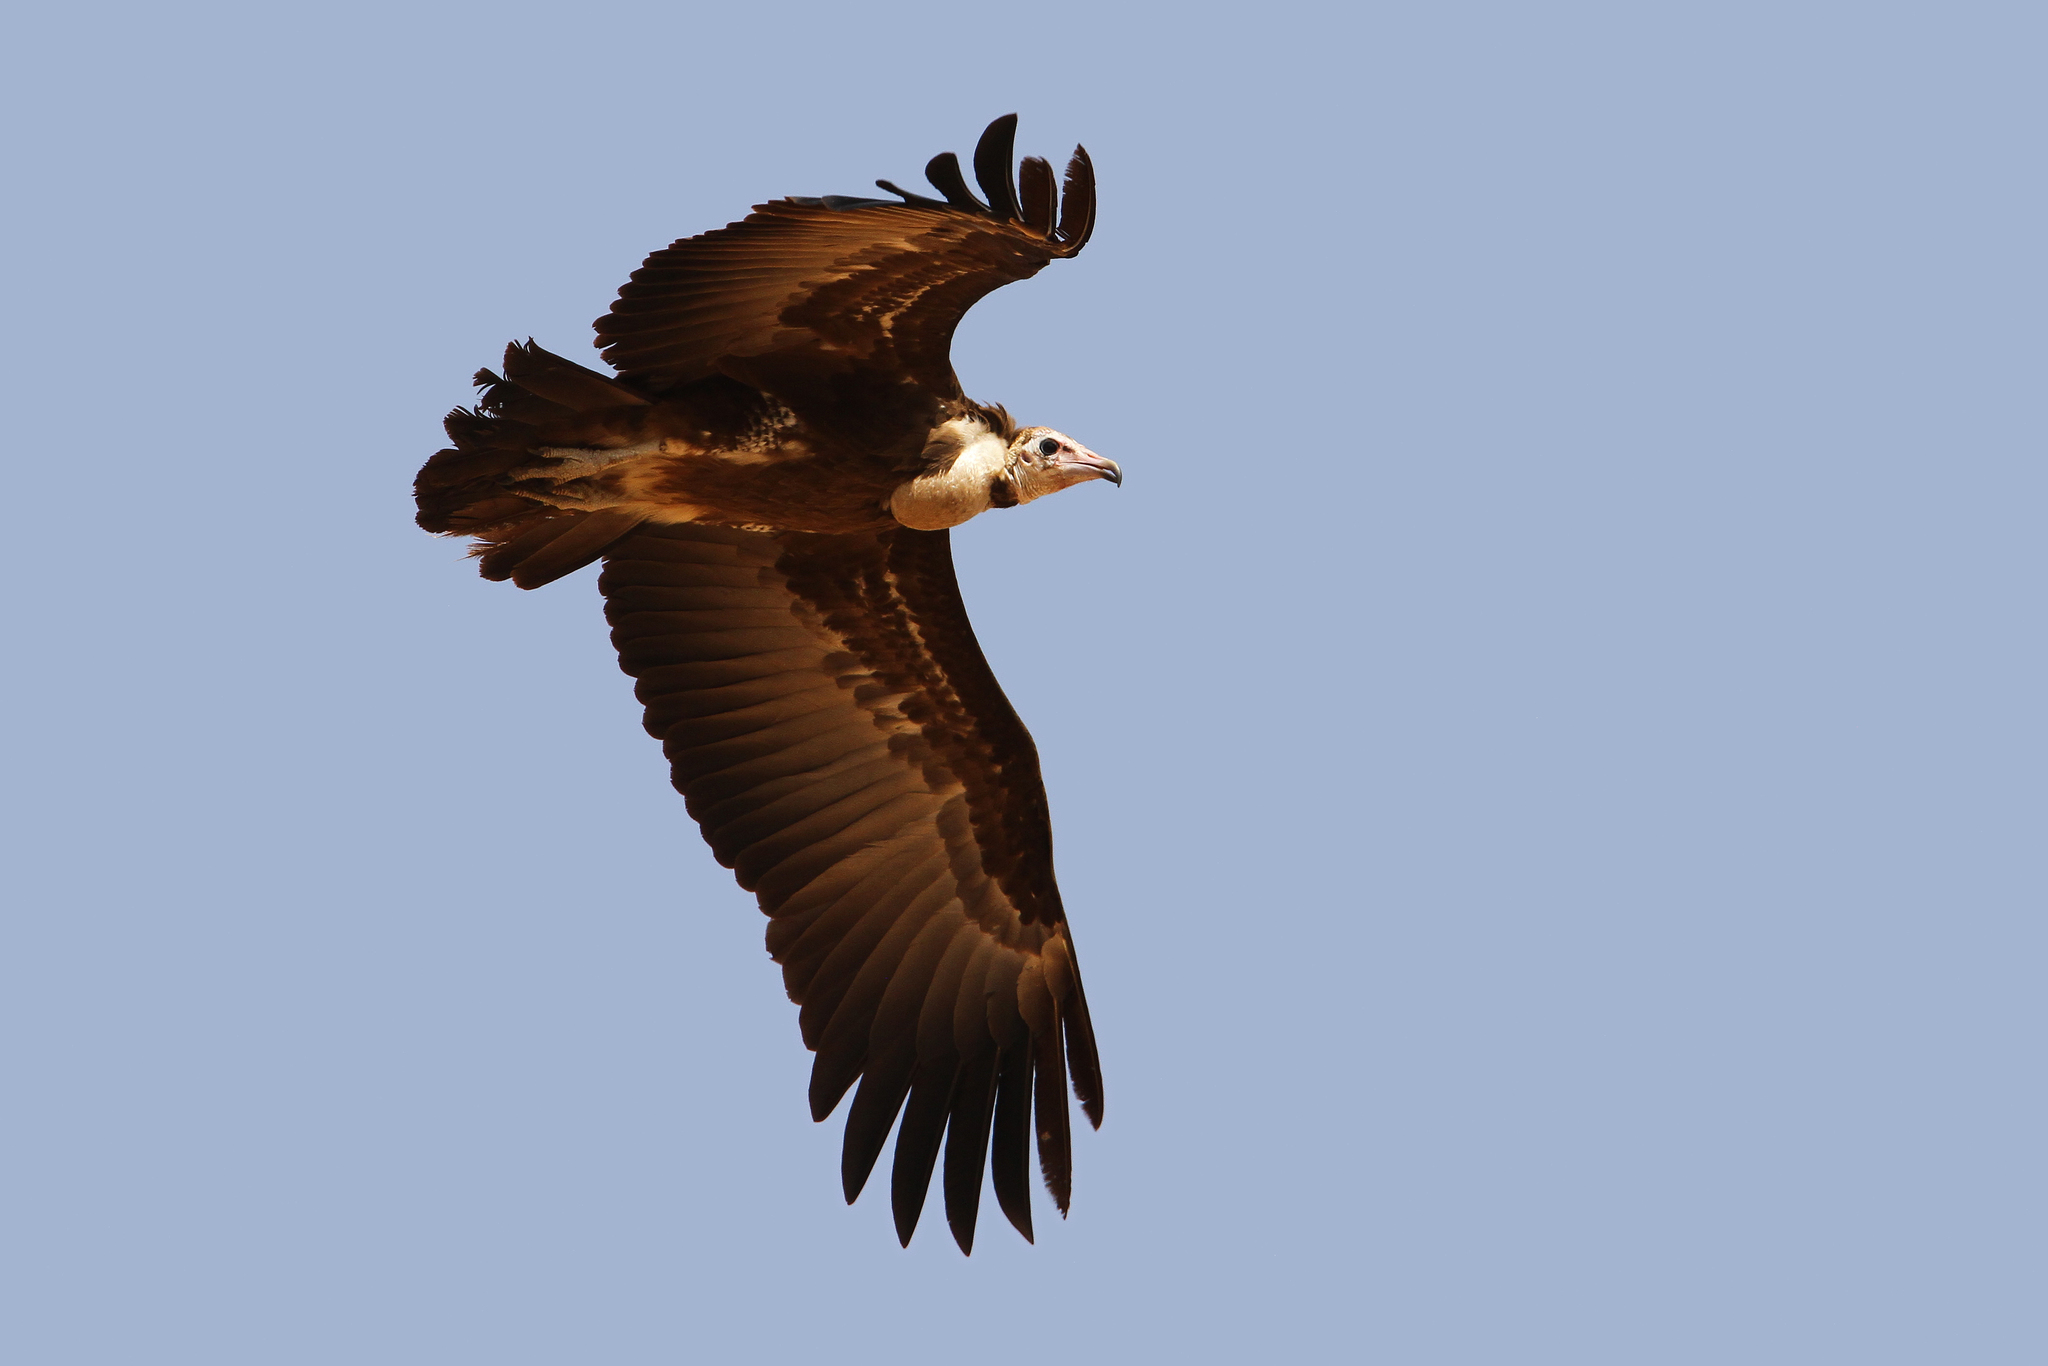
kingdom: Animalia
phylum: Chordata
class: Aves
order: Accipitriformes
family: Accipitridae
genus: Necrosyrtes
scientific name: Necrosyrtes monachus
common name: Hooded vulture
